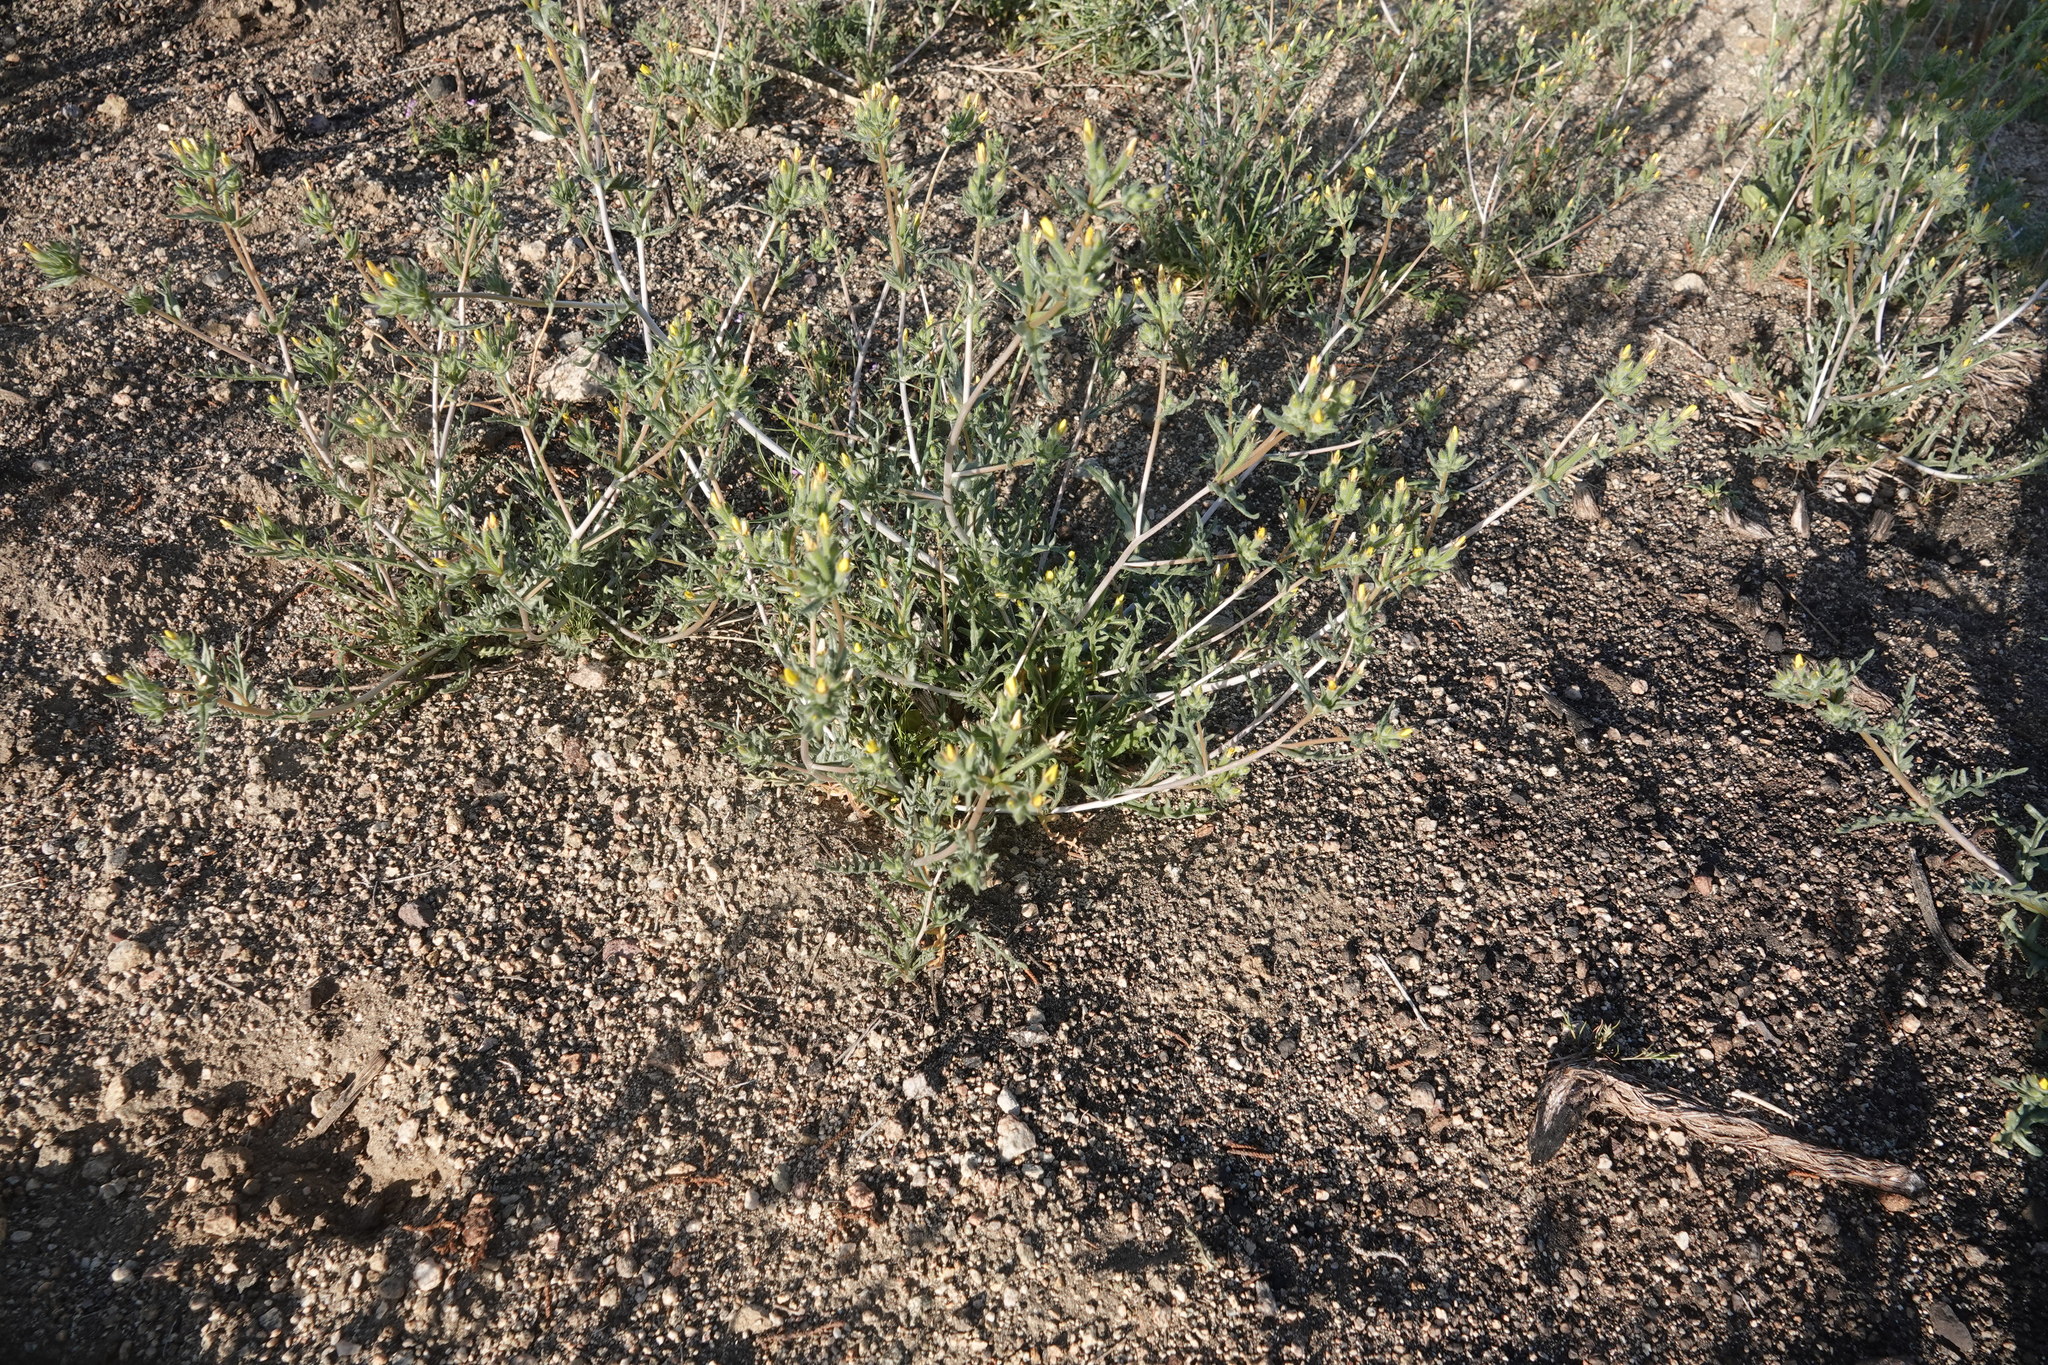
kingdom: Plantae
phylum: Tracheophyta
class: Magnoliopsida
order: Cornales
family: Loasaceae
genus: Mentzelia
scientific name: Mentzelia albicaulis
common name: White-stem blazingstar
